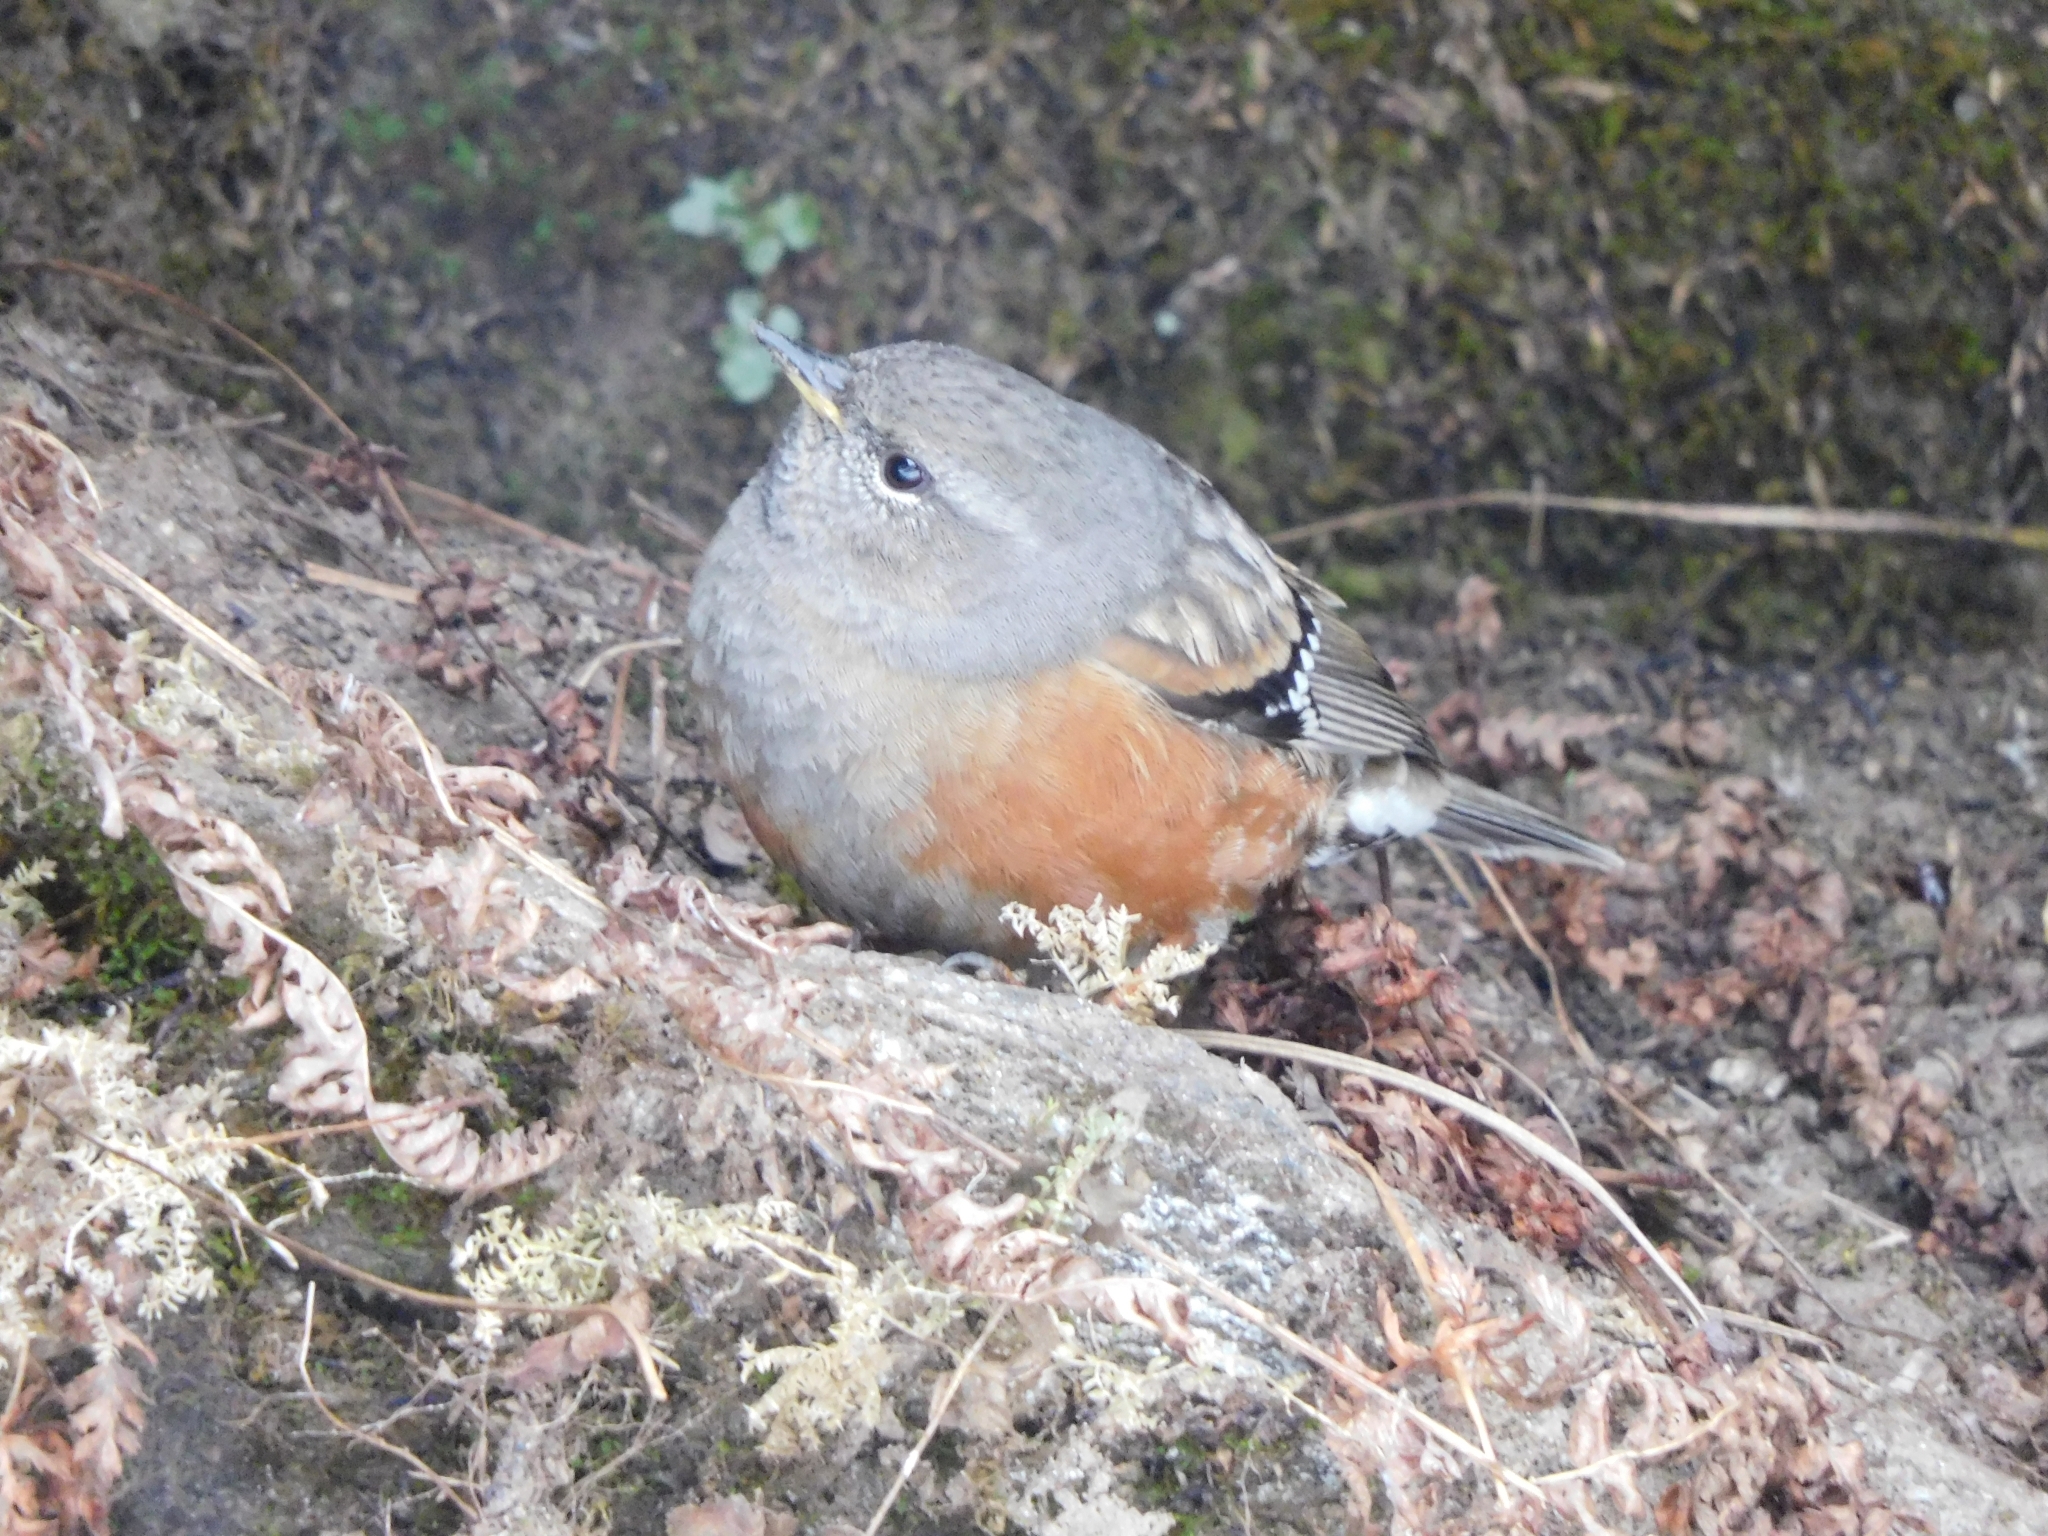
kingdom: Animalia
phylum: Chordata
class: Aves
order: Passeriformes
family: Prunellidae
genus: Prunella
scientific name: Prunella collaris
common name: Alpine accentor
